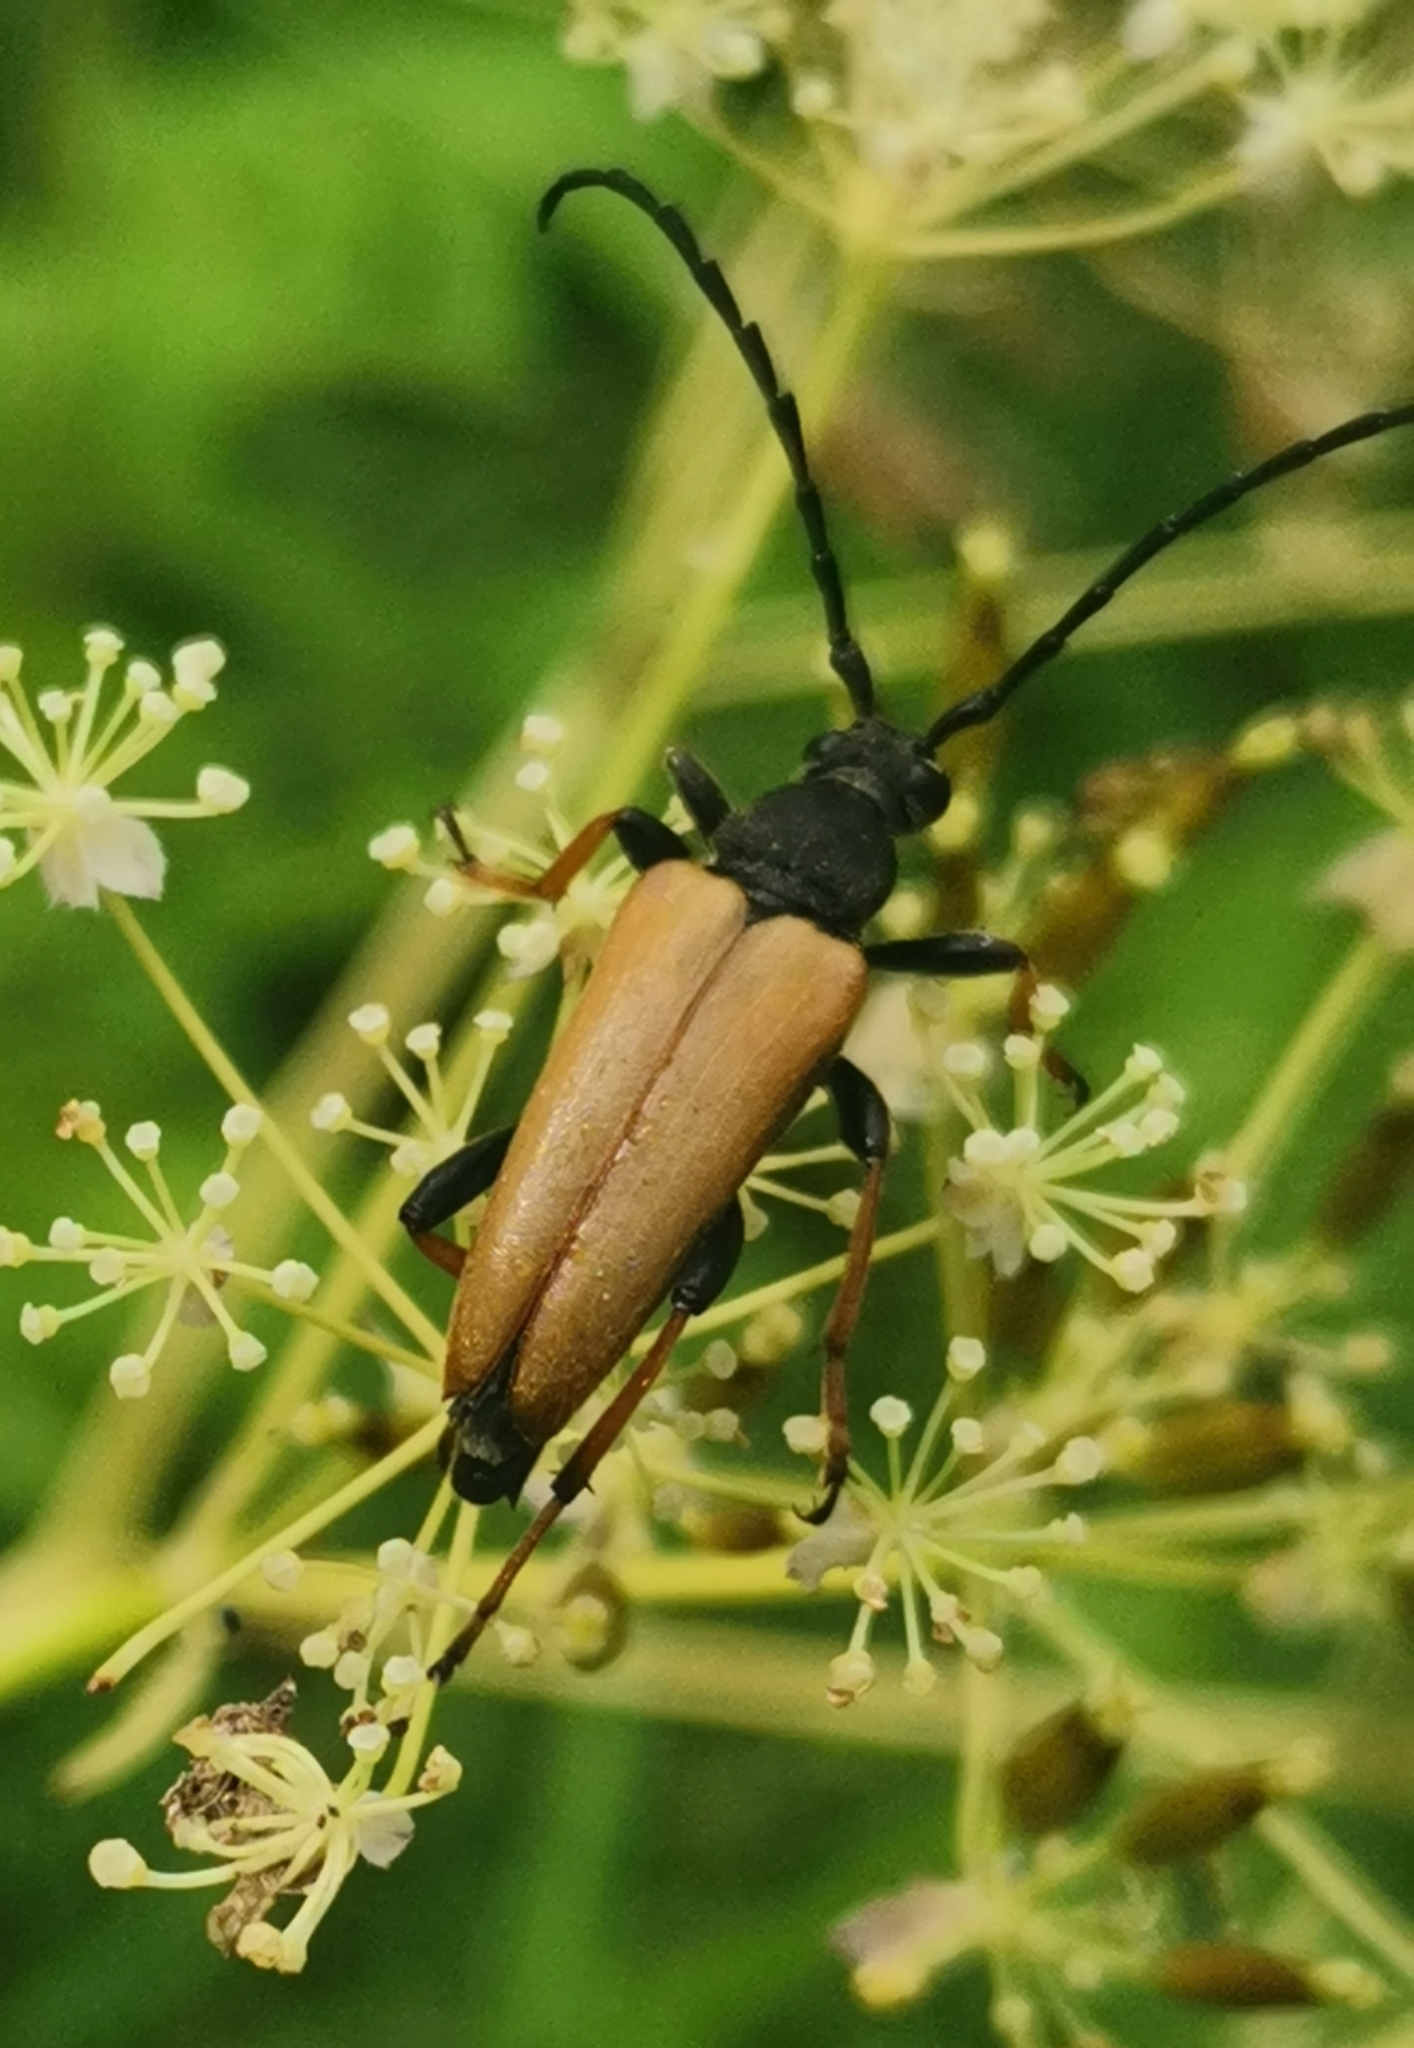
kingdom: Animalia
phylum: Arthropoda
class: Insecta
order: Coleoptera
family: Cerambycidae
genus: Stictoleptura
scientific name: Stictoleptura rubra
